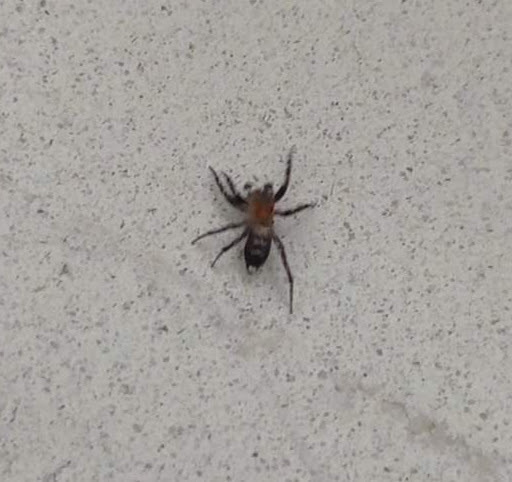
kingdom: Animalia
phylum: Arthropoda
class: Arachnida
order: Araneae
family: Salticidae
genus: Cyrba
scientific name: Cyrba algerina
